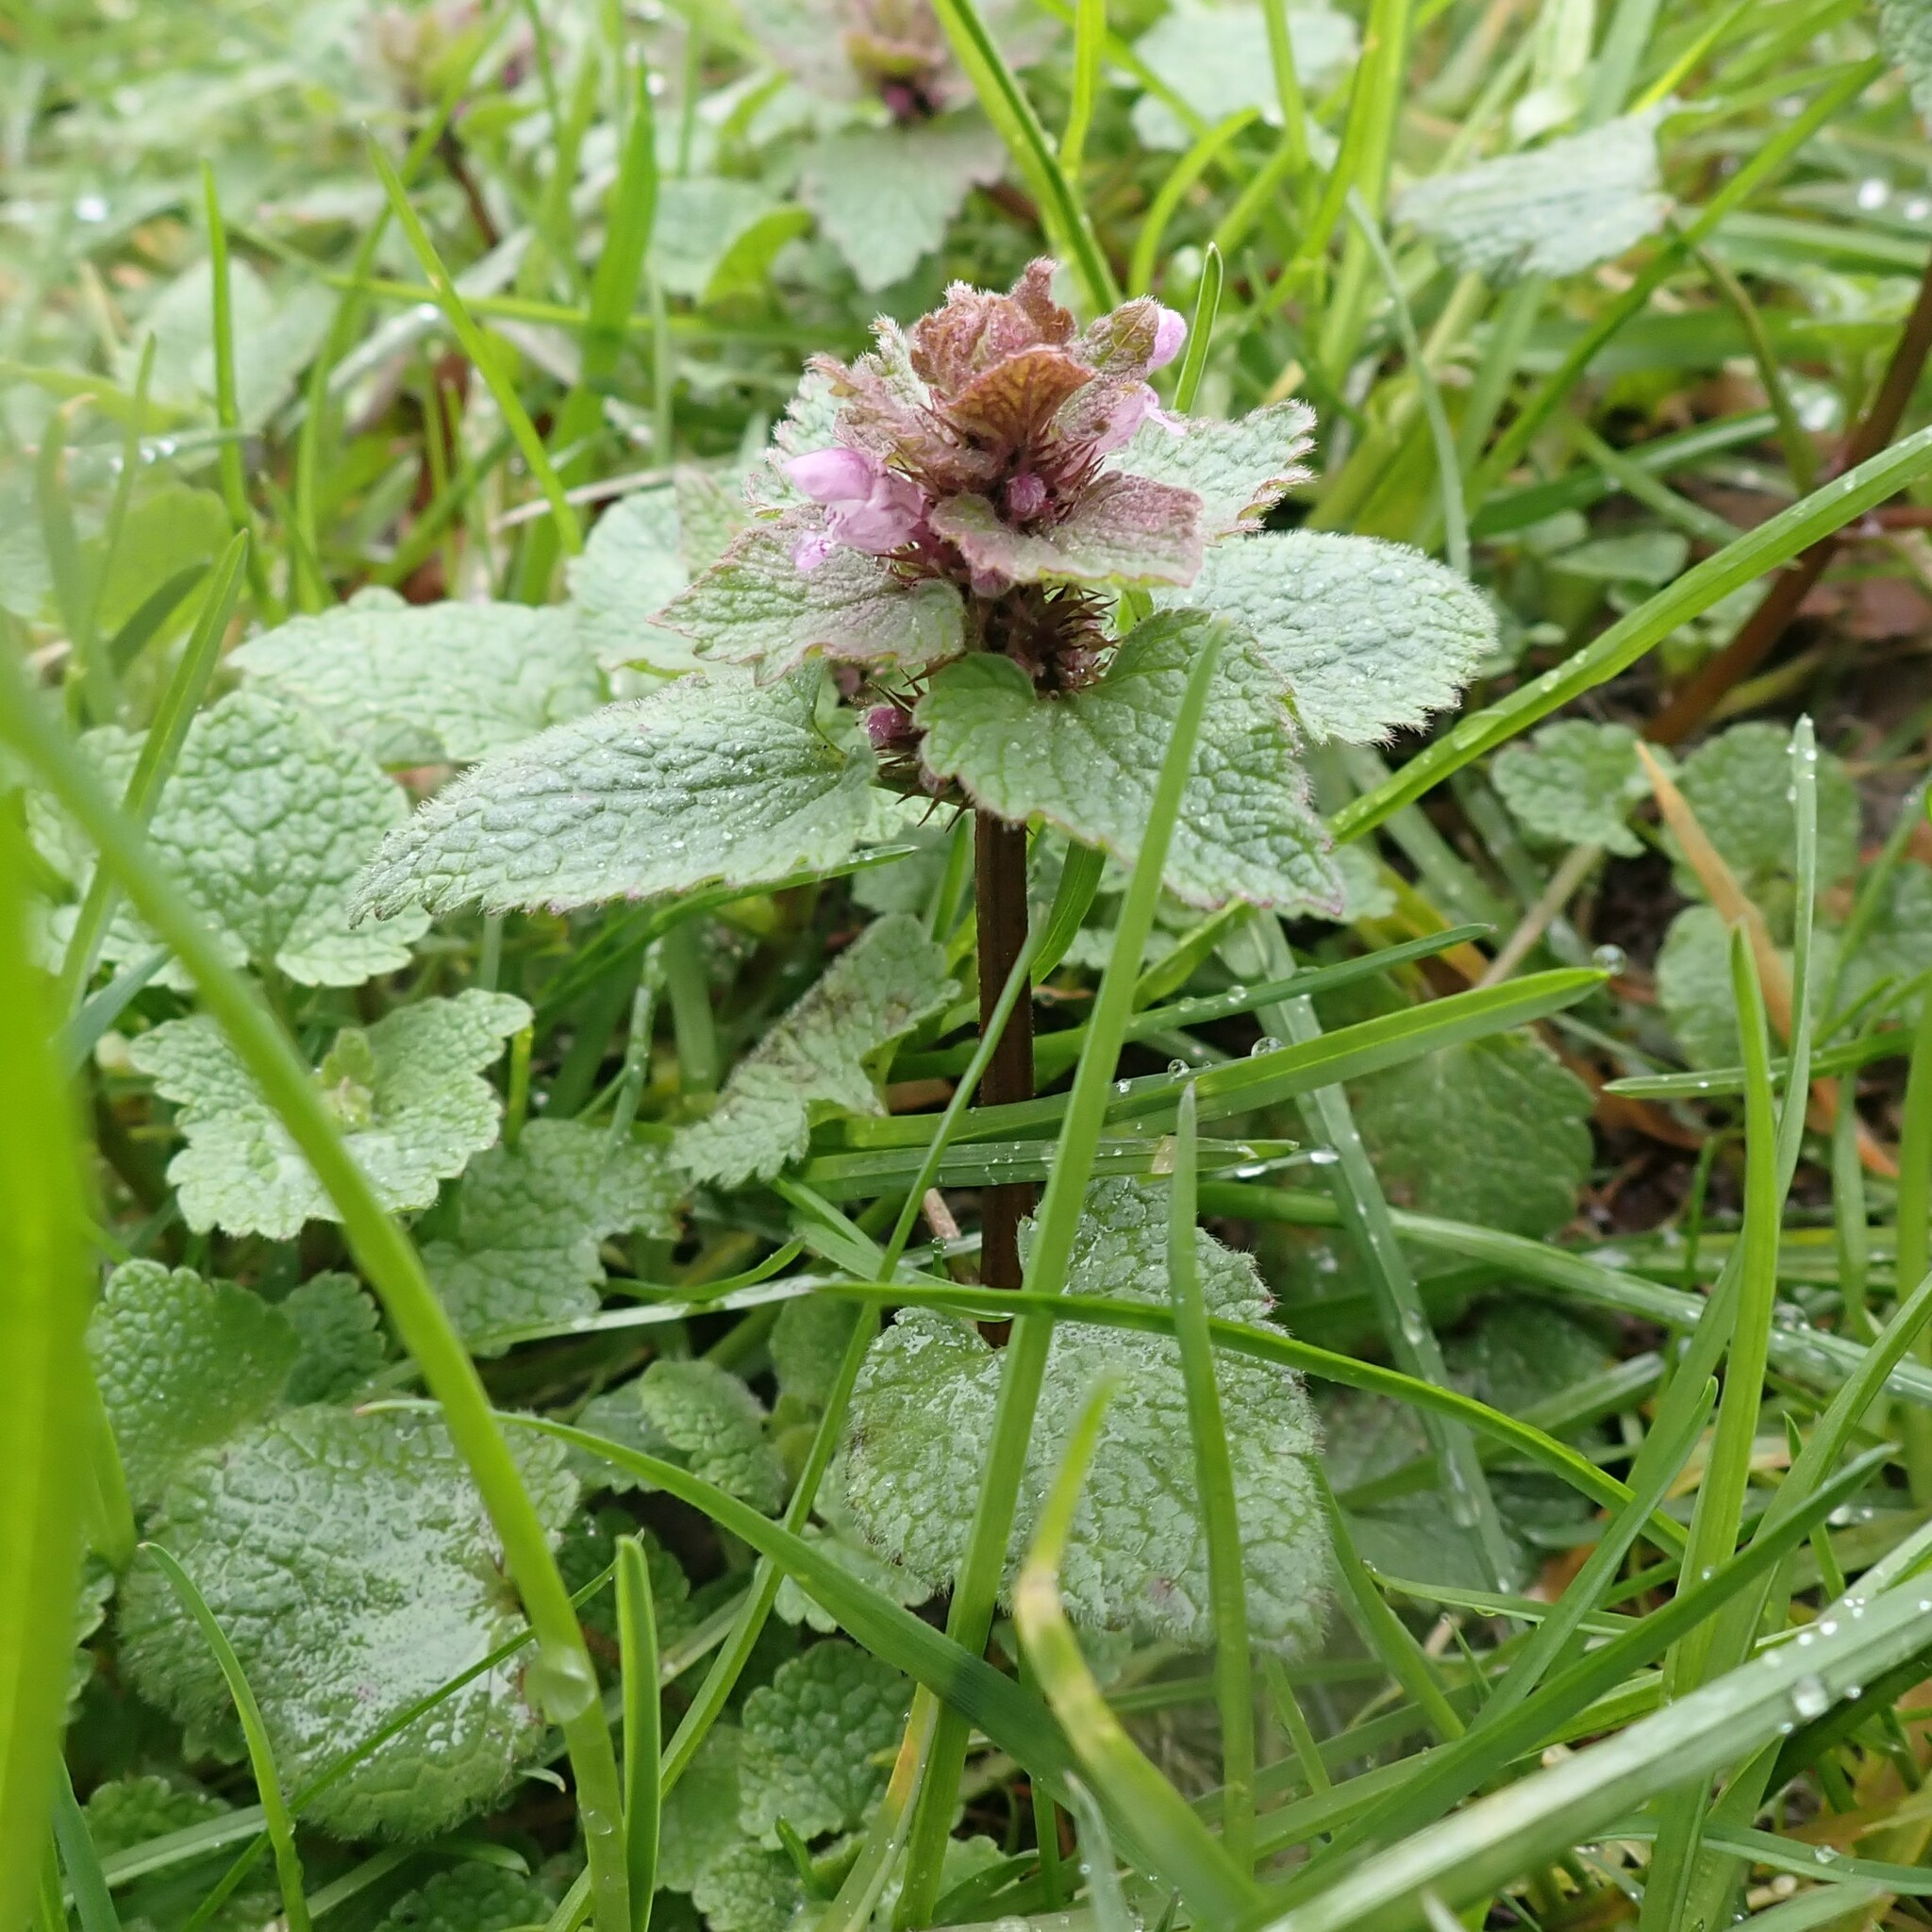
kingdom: Plantae
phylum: Tracheophyta
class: Magnoliopsida
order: Lamiales
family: Lamiaceae
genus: Lamium
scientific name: Lamium purpureum
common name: Red dead-nettle
